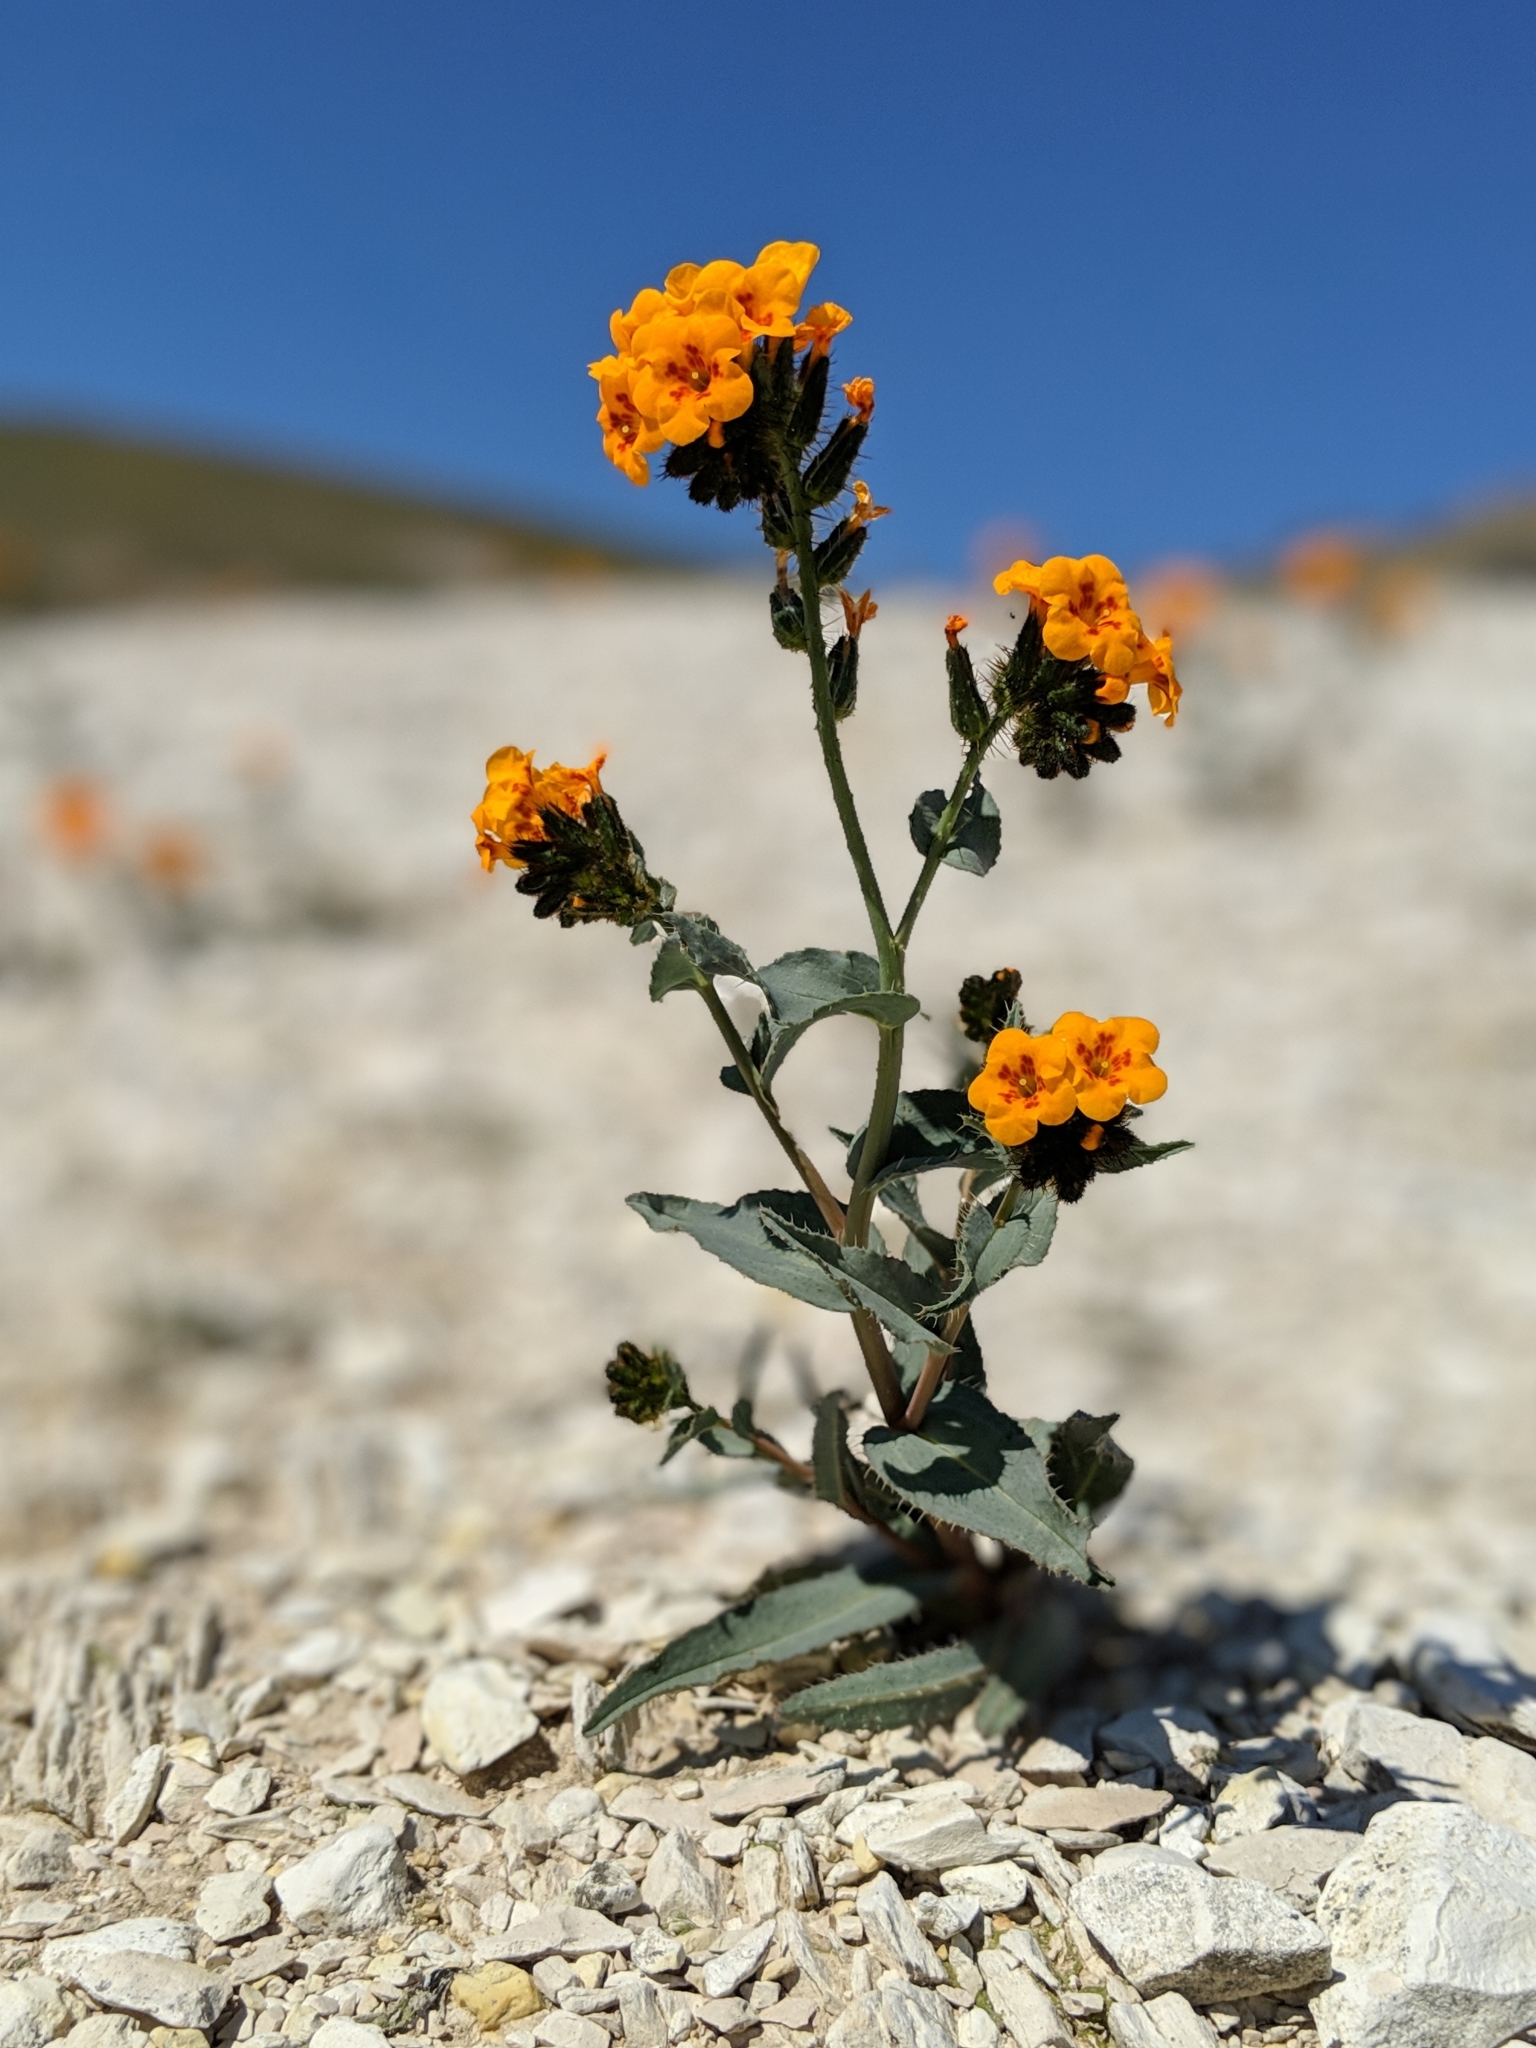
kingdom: Plantae
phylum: Tracheophyta
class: Magnoliopsida
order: Boraginales
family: Boraginaceae
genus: Amsinckia
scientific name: Amsinckia vernicosa
